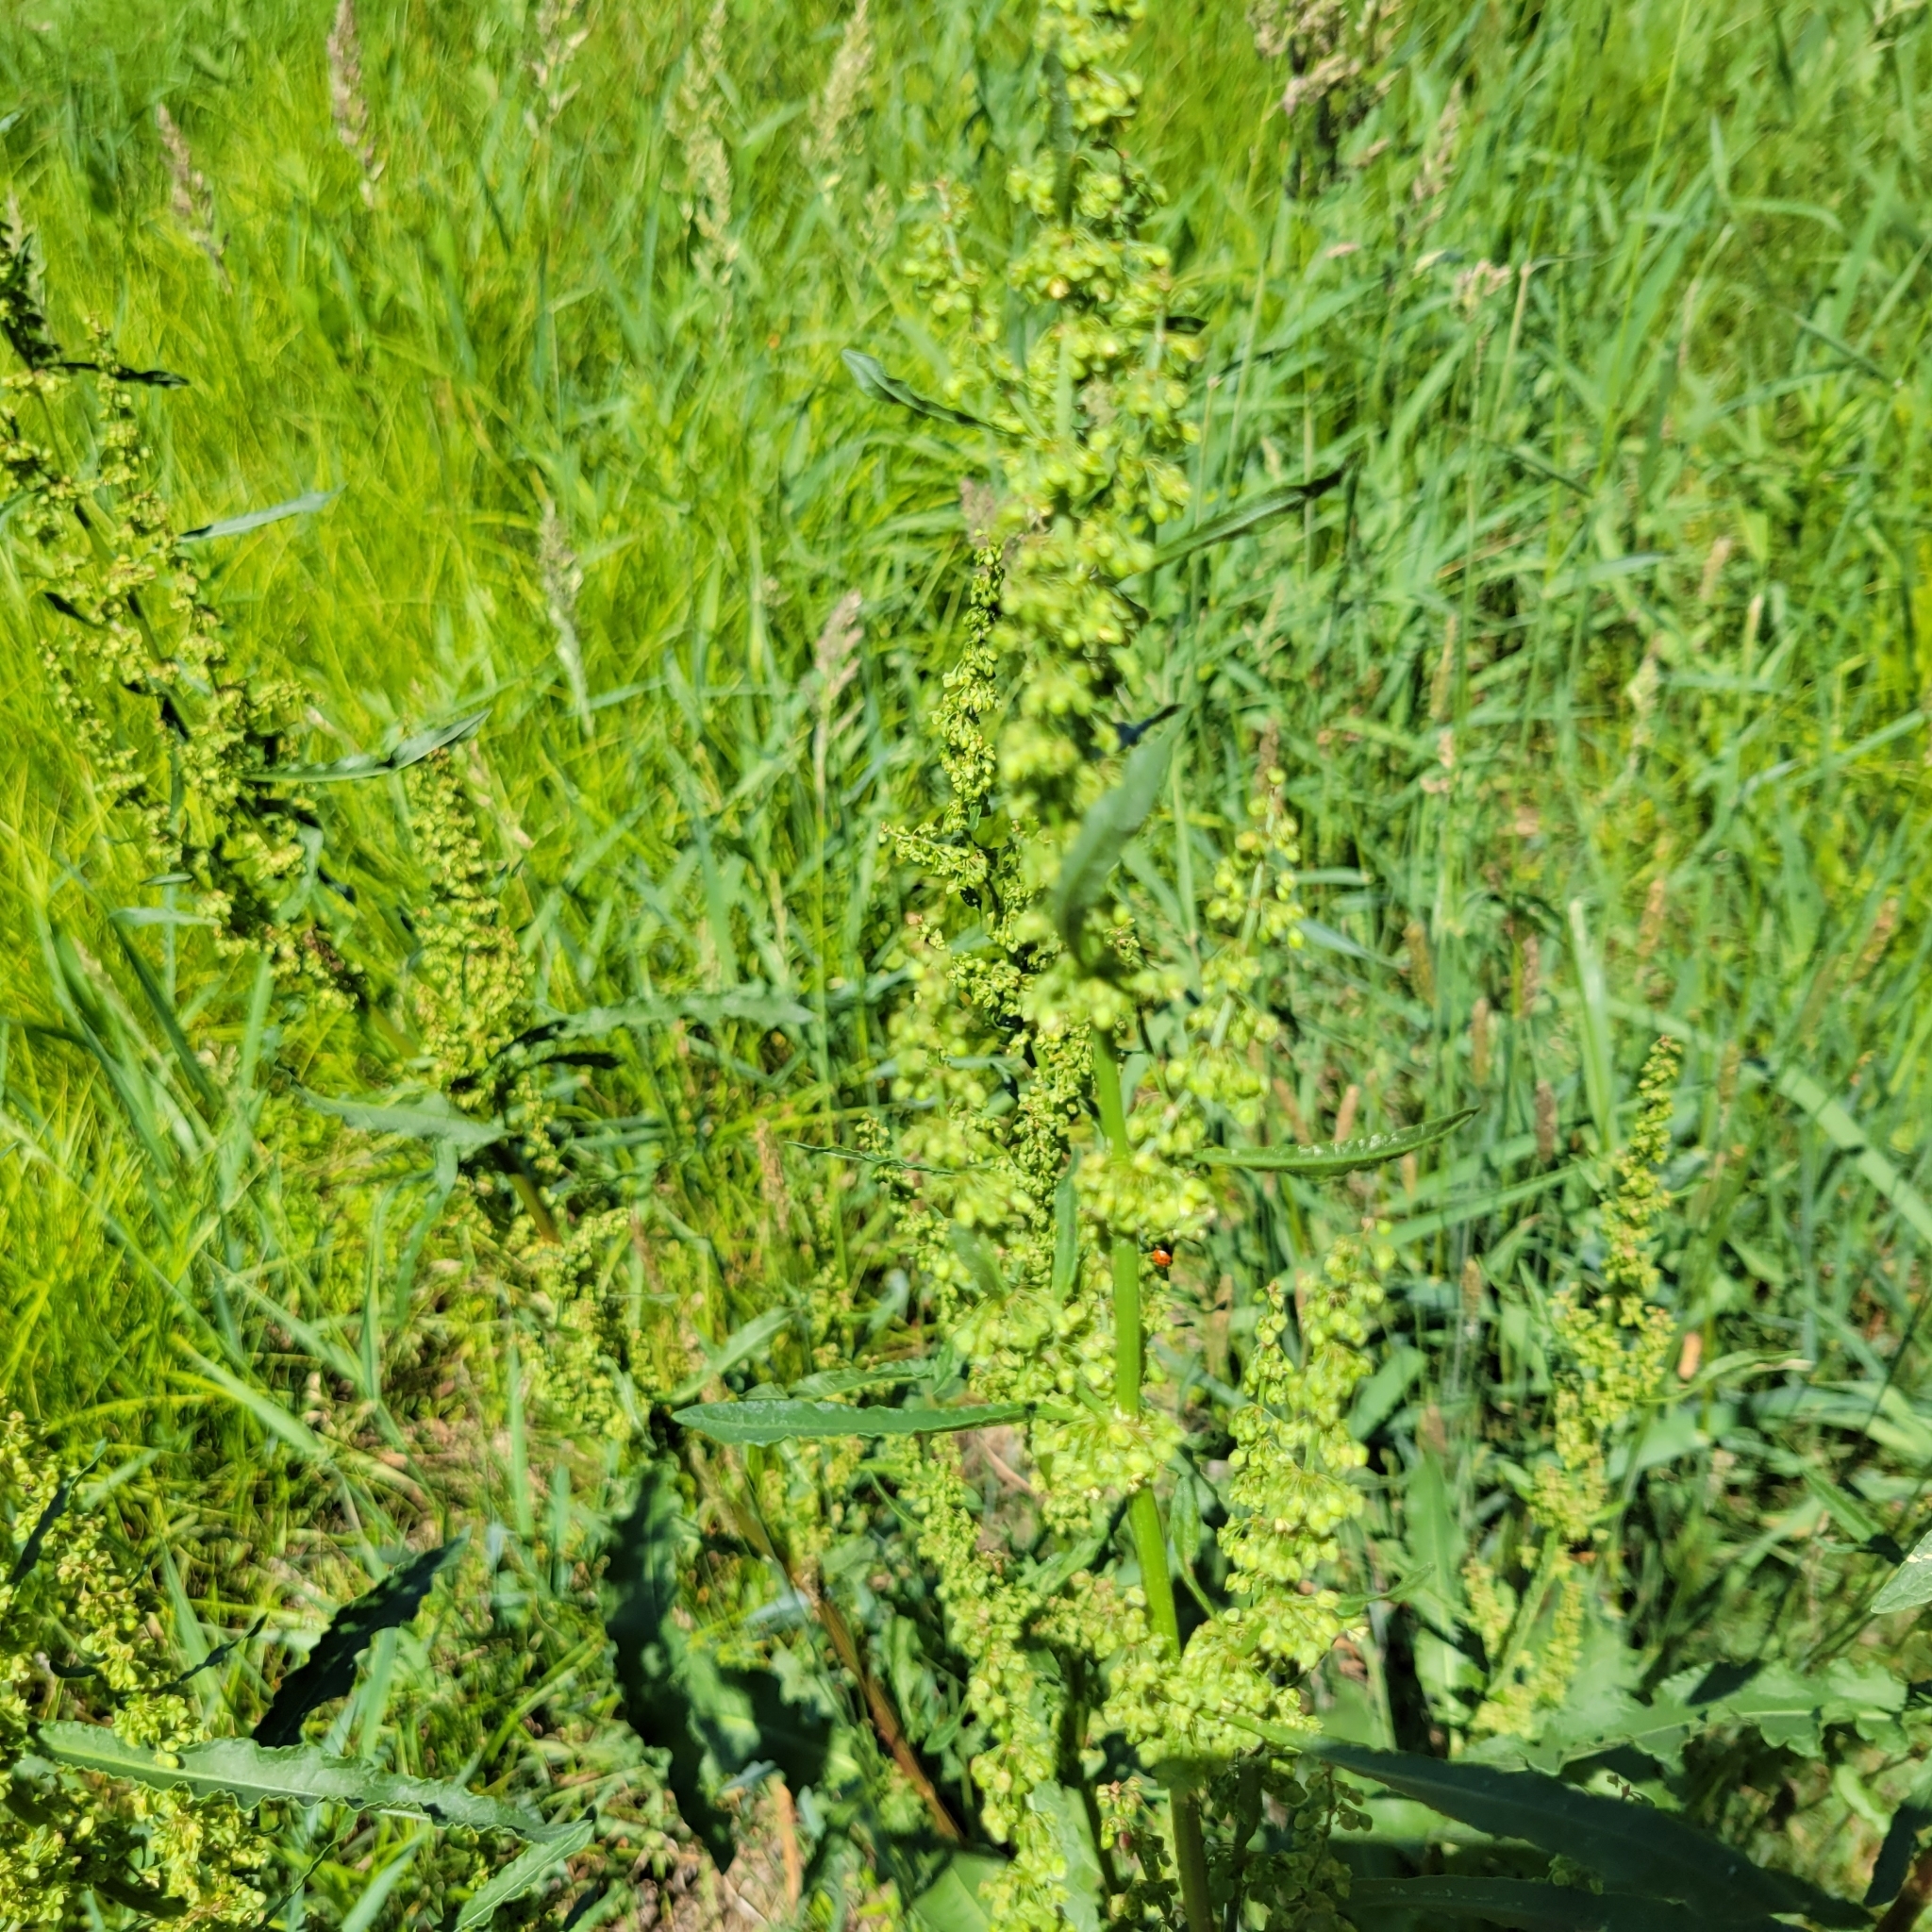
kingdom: Plantae
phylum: Tracheophyta
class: Magnoliopsida
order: Caryophyllales
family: Polygonaceae
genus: Rumex
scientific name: Rumex crispus
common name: Curled dock
